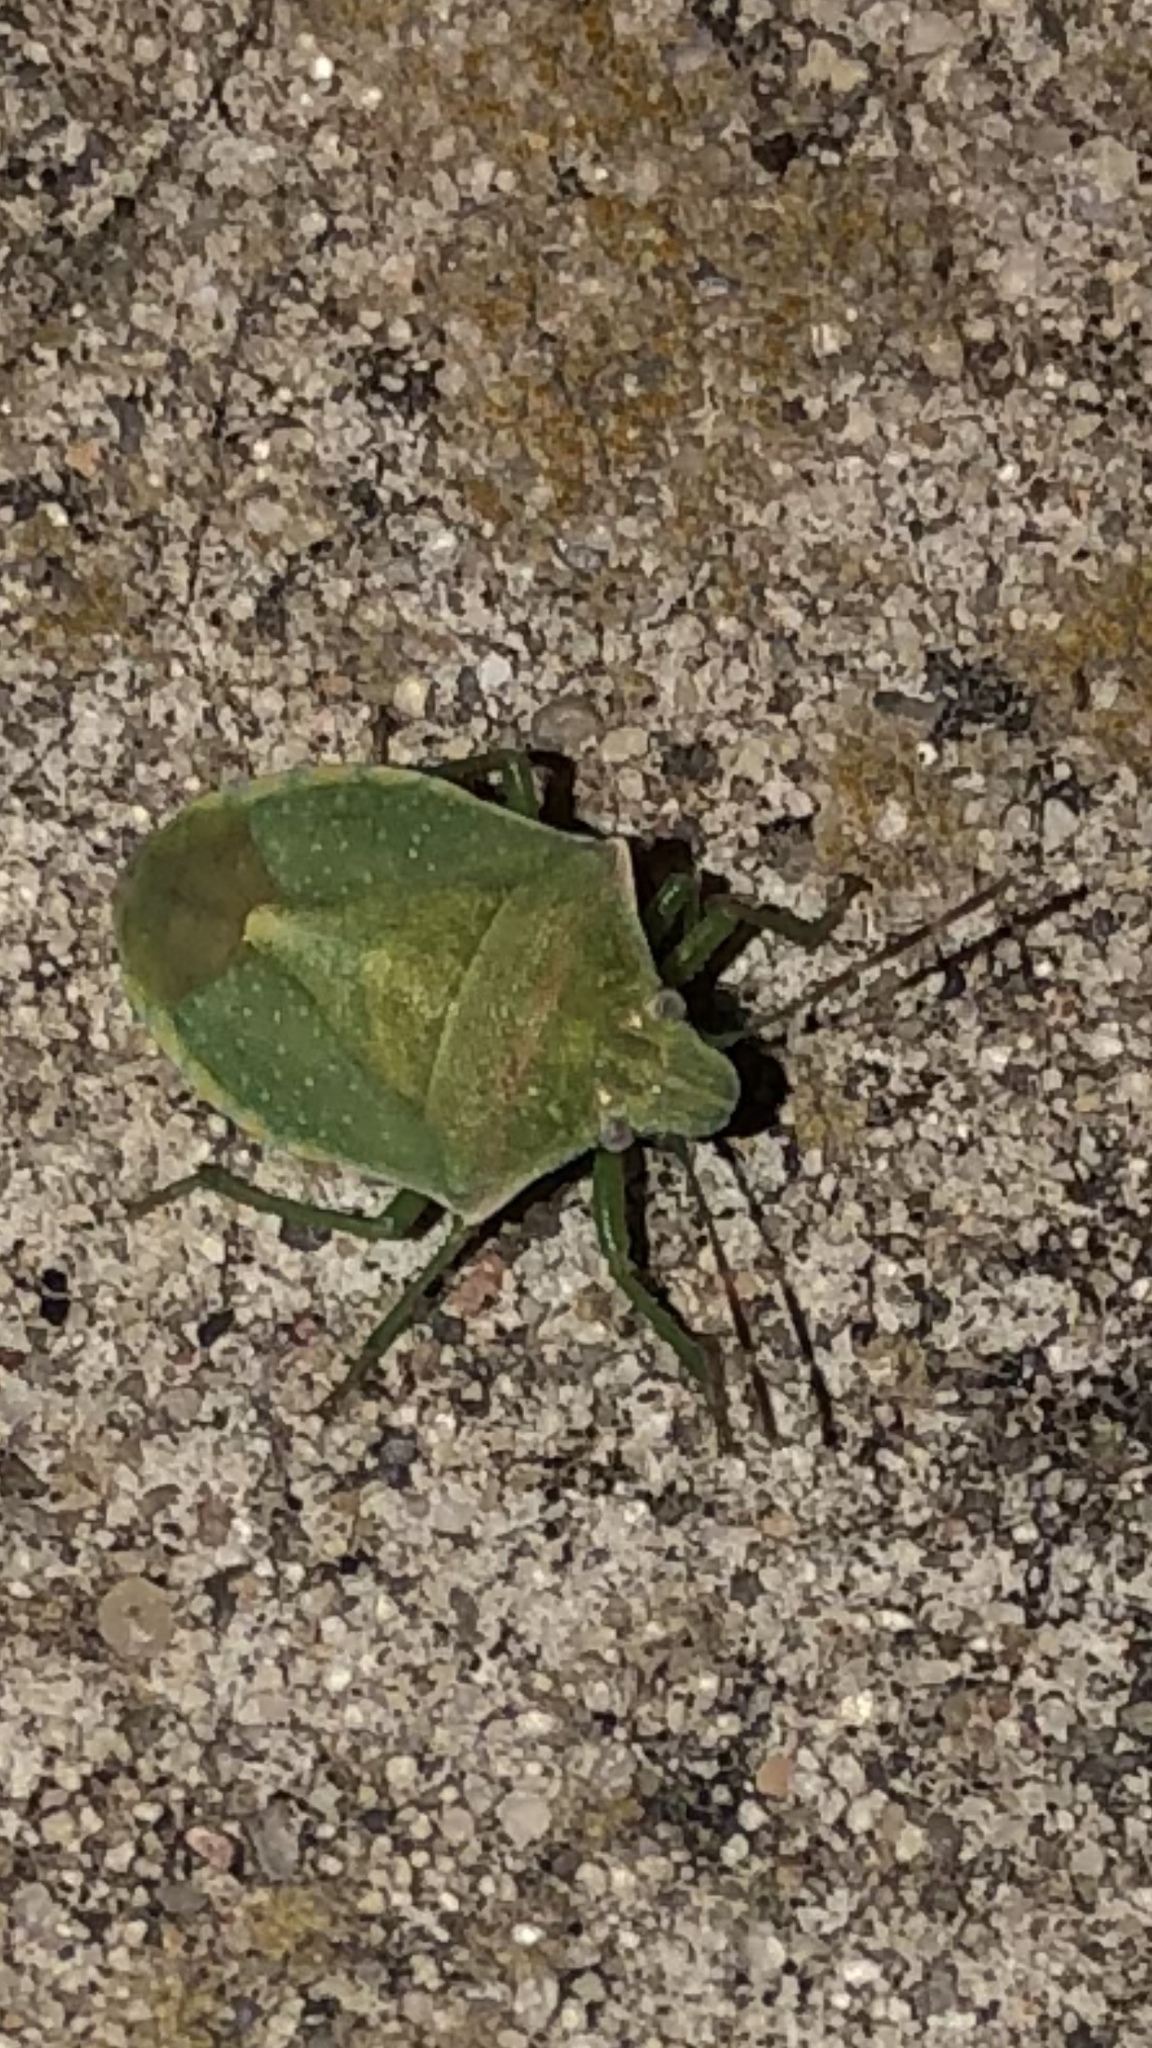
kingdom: Animalia
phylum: Arthropoda
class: Insecta
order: Hemiptera
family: Pentatomidae
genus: Thyanta
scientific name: Thyanta accerra
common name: Stink bug
